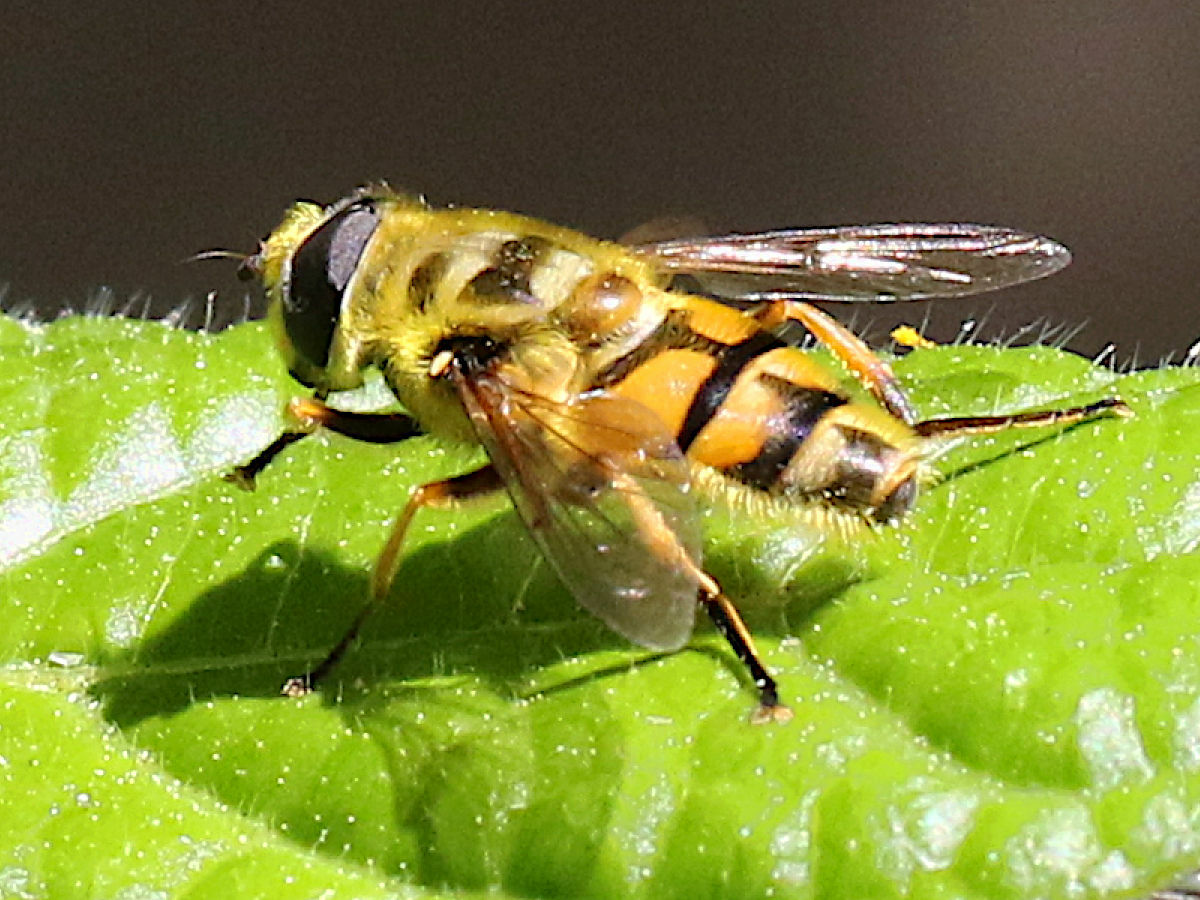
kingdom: Animalia
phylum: Arthropoda
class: Insecta
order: Diptera
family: Syrphidae
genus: Myathropa
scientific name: Myathropa florea
